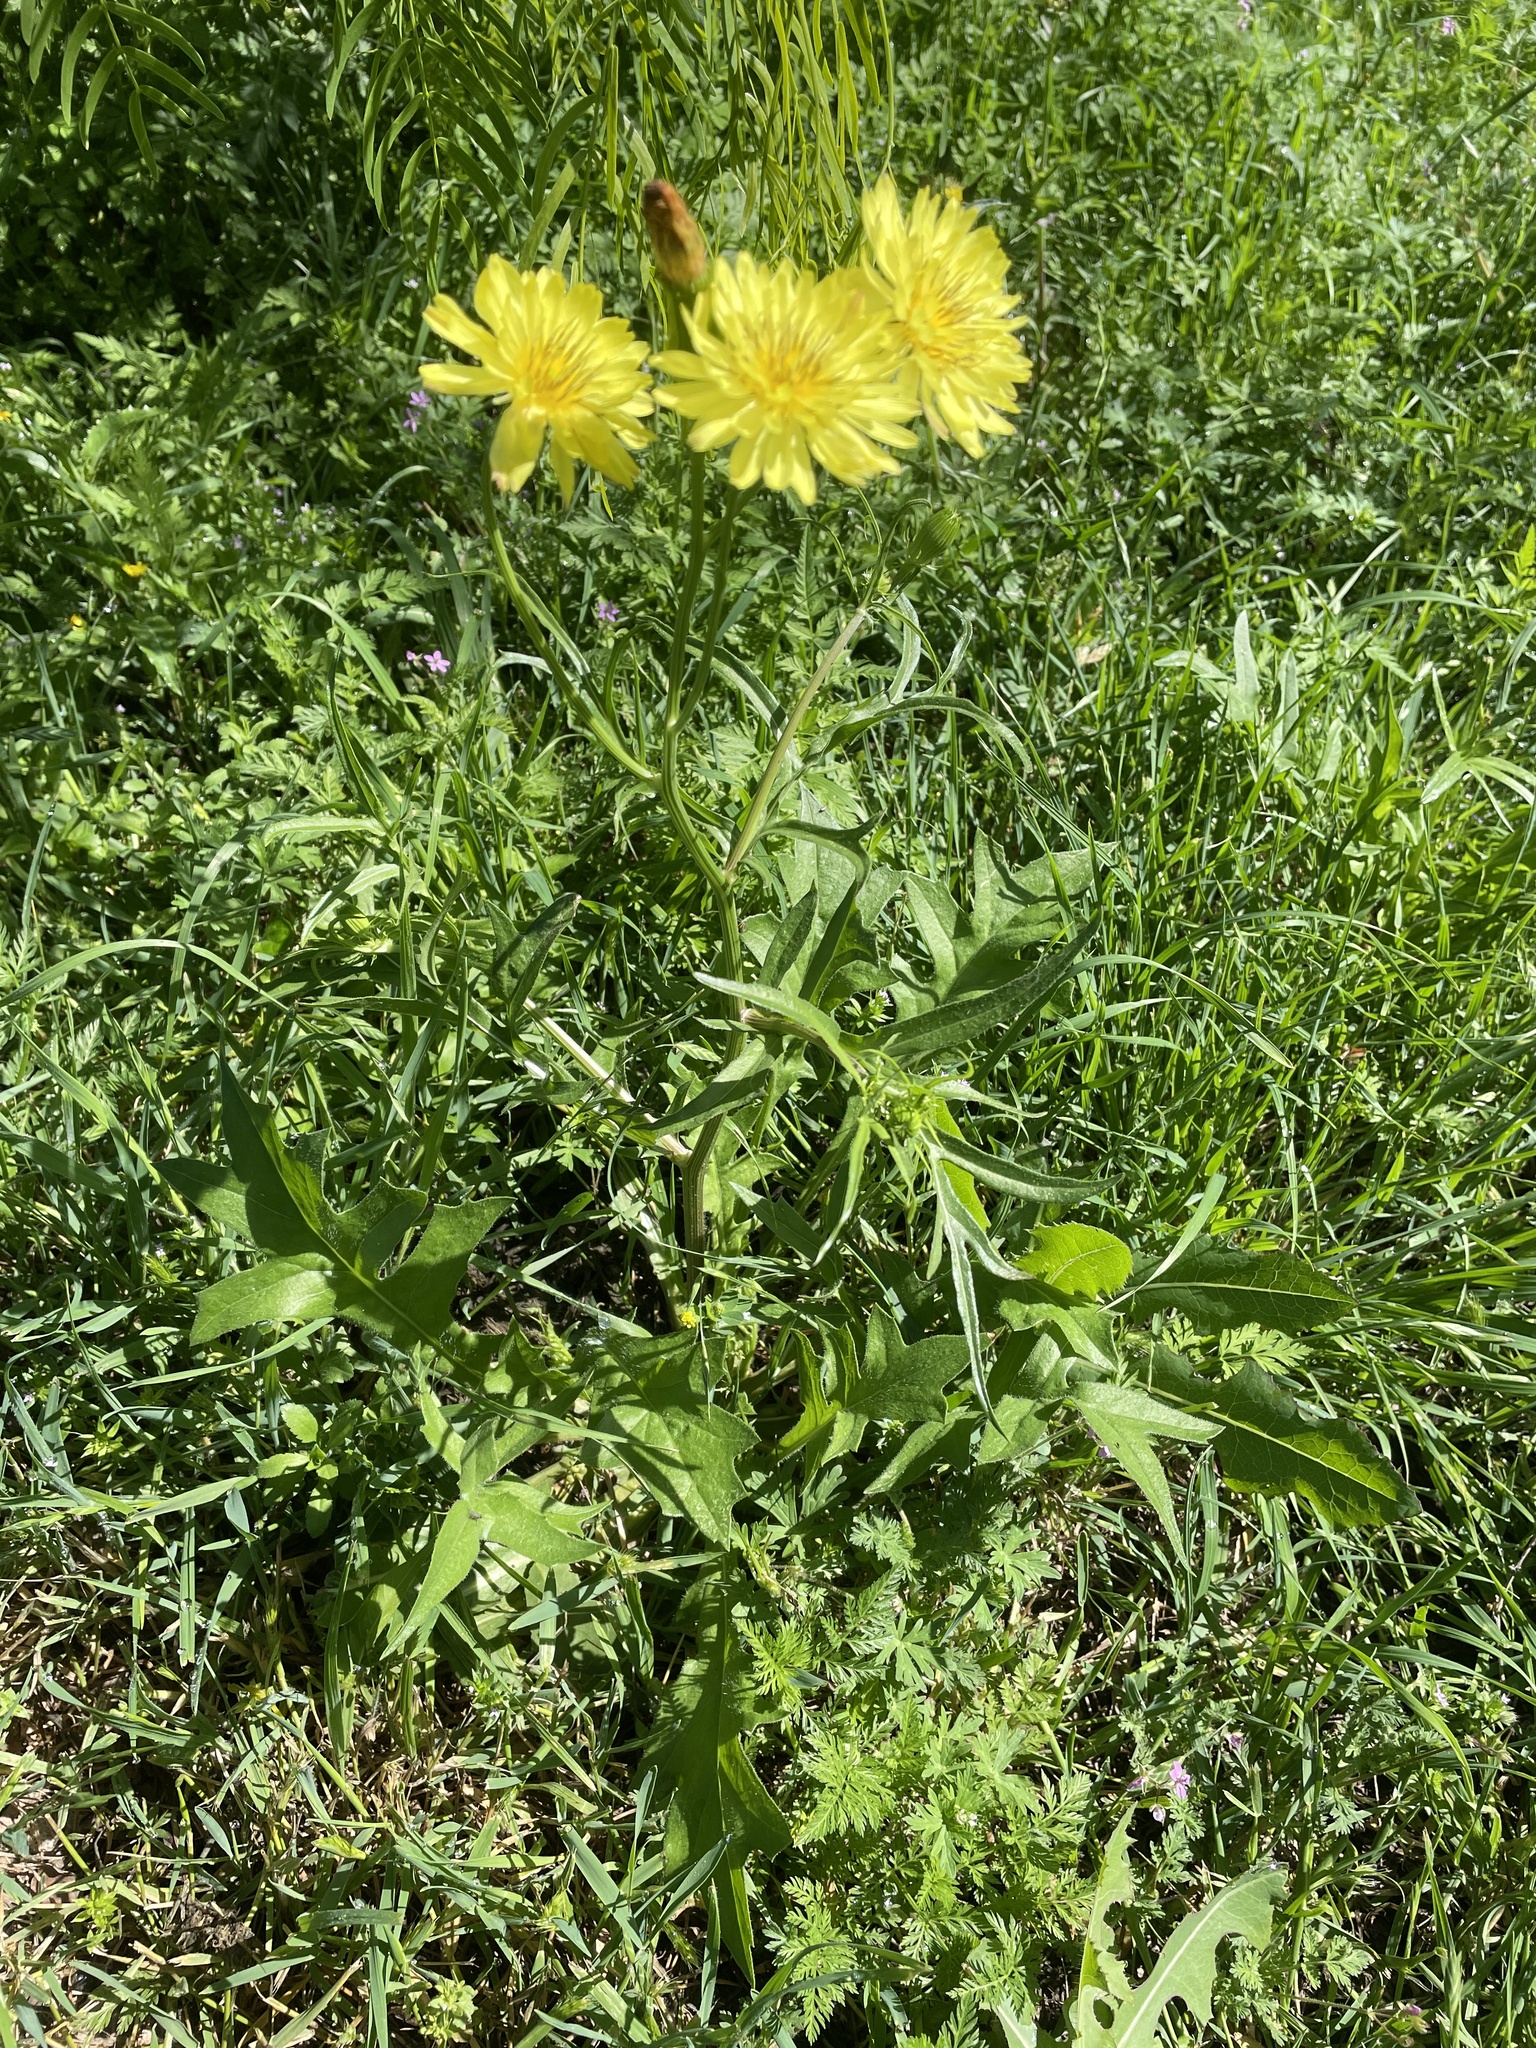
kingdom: Plantae
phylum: Tracheophyta
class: Magnoliopsida
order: Asterales
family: Asteraceae
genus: Pyrrhopappus
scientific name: Pyrrhopappus pauciflorus
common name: Texas false dandelion
